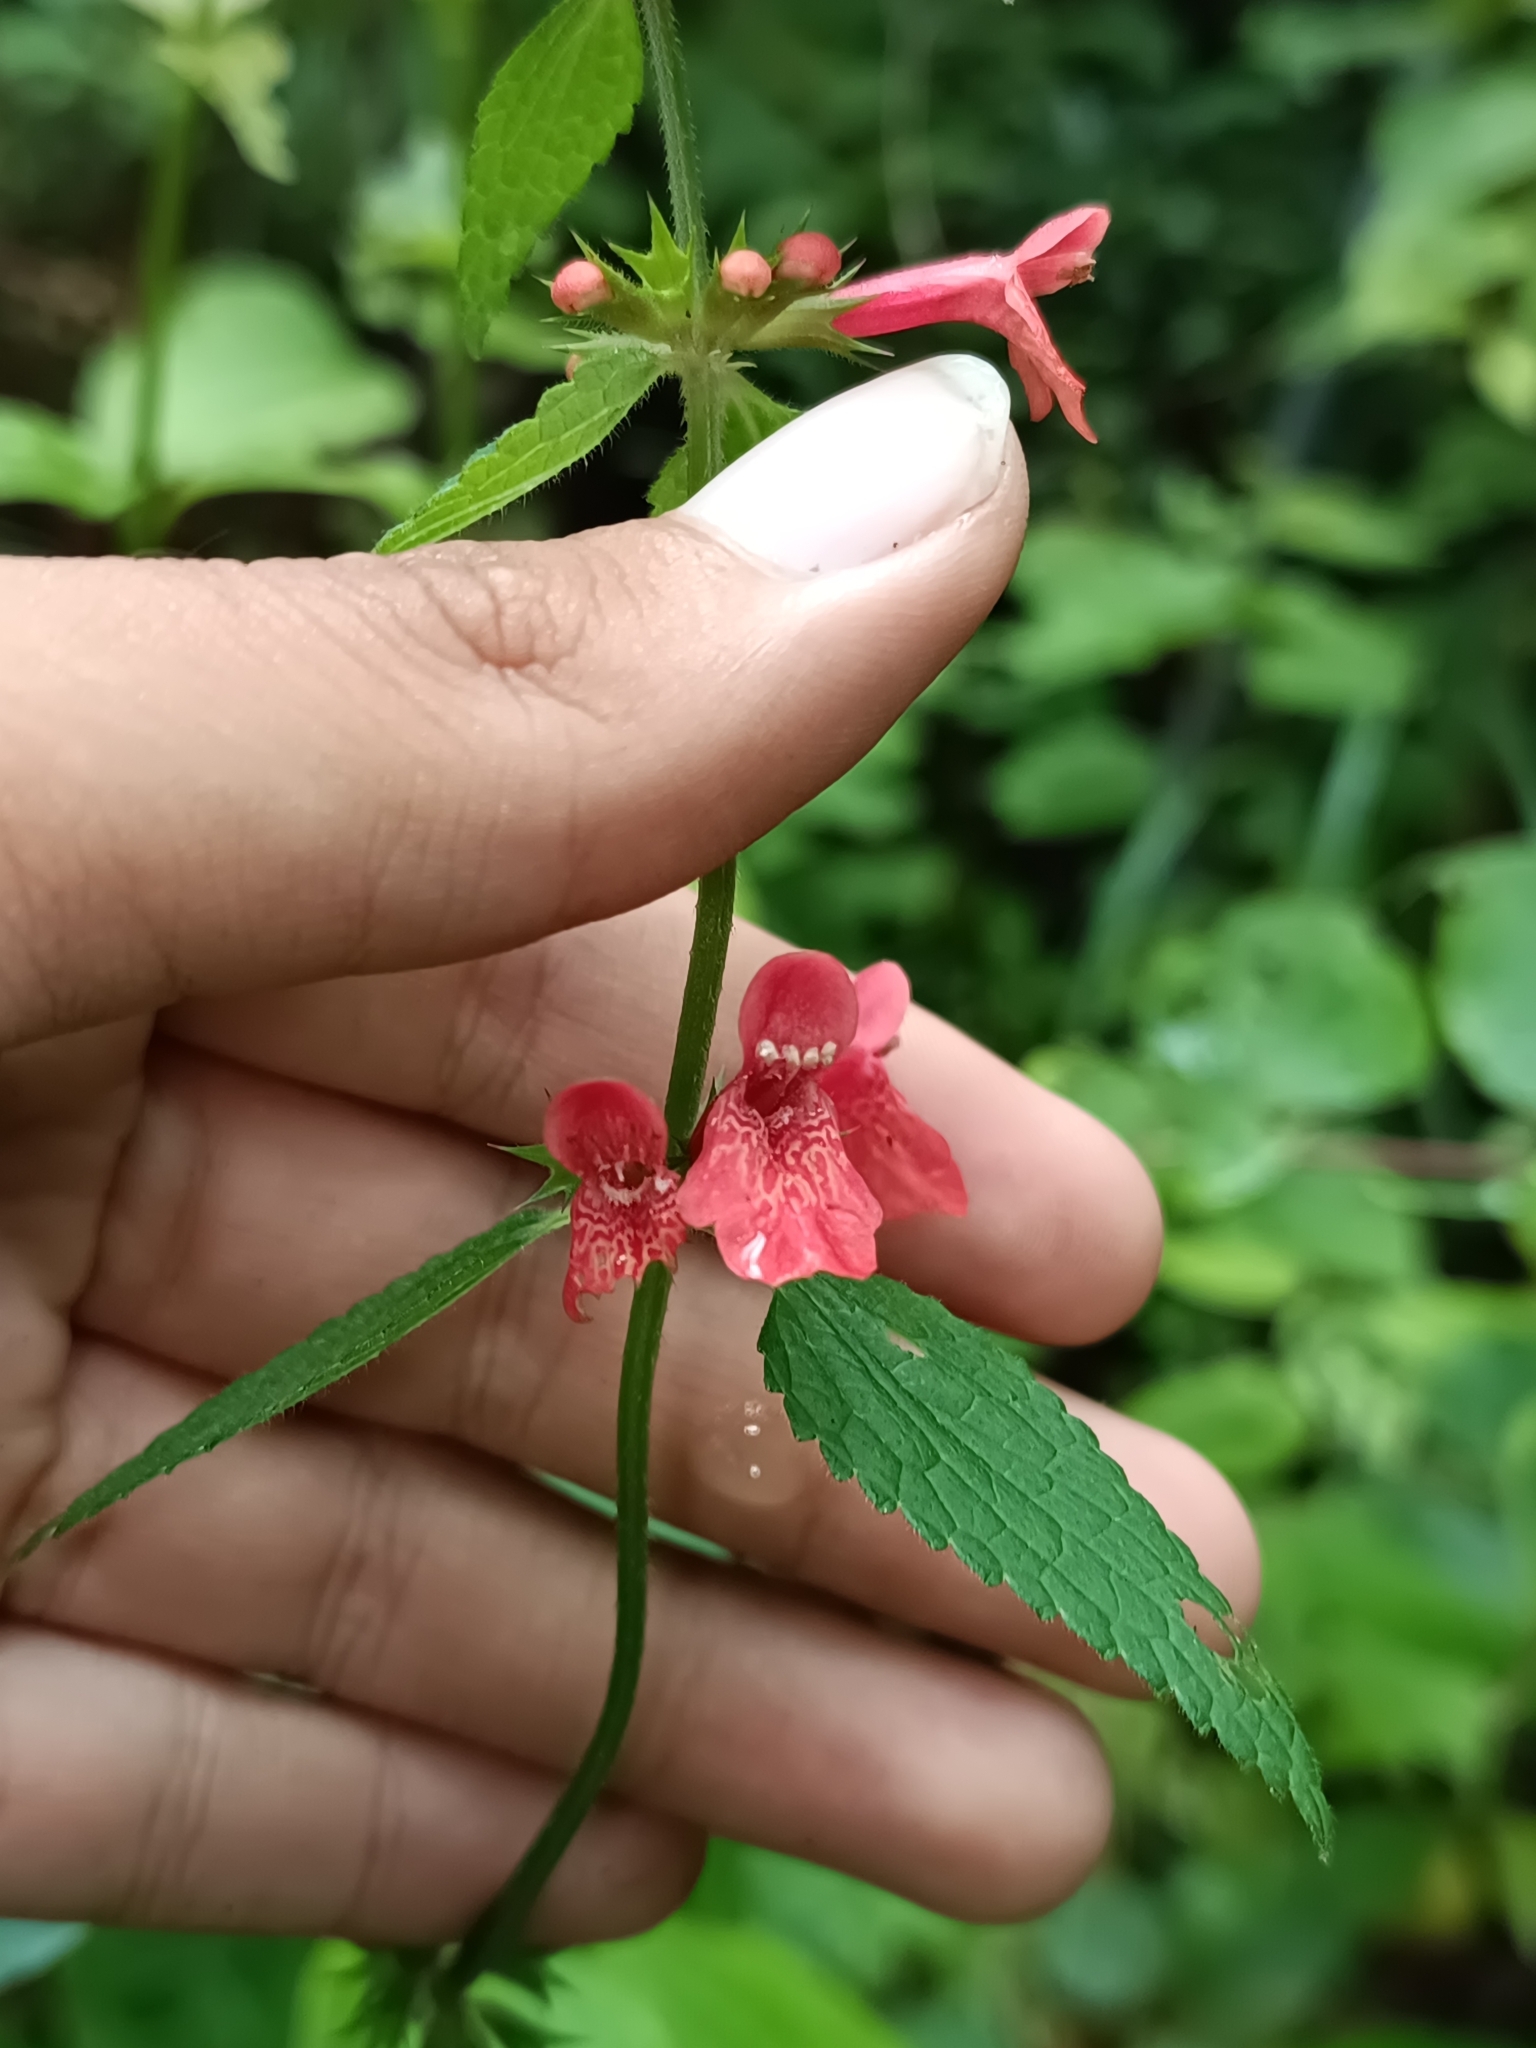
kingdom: Plantae
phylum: Tracheophyta
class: Magnoliopsida
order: Lamiales
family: Lamiaceae
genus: Stachys
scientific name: Stachys coccinea
